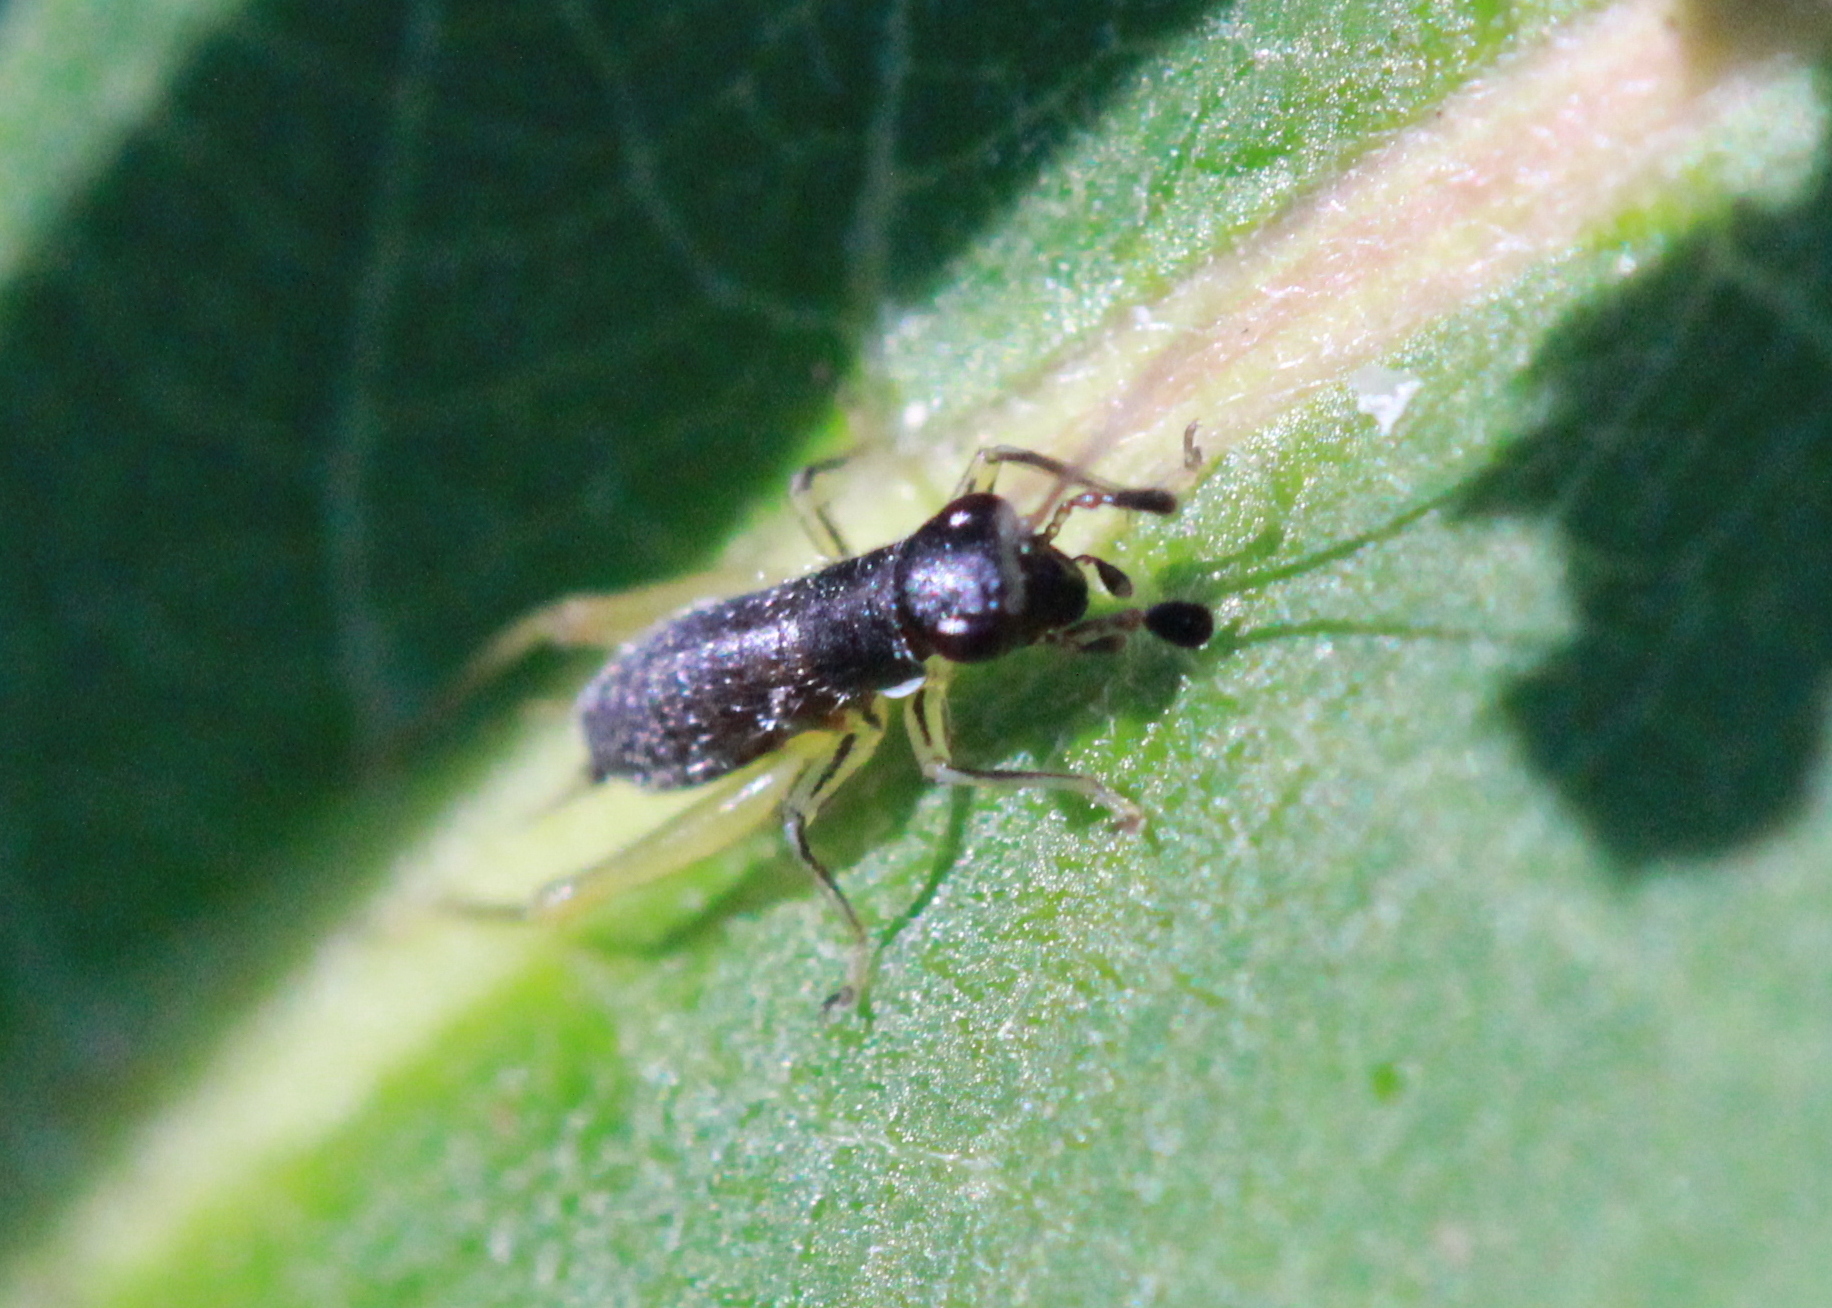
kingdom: Animalia
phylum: Arthropoda
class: Insecta
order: Orthoptera
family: Trigonidiidae
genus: Phyllopalpus
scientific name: Phyllopalpus pulchellus
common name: Handsome trig
